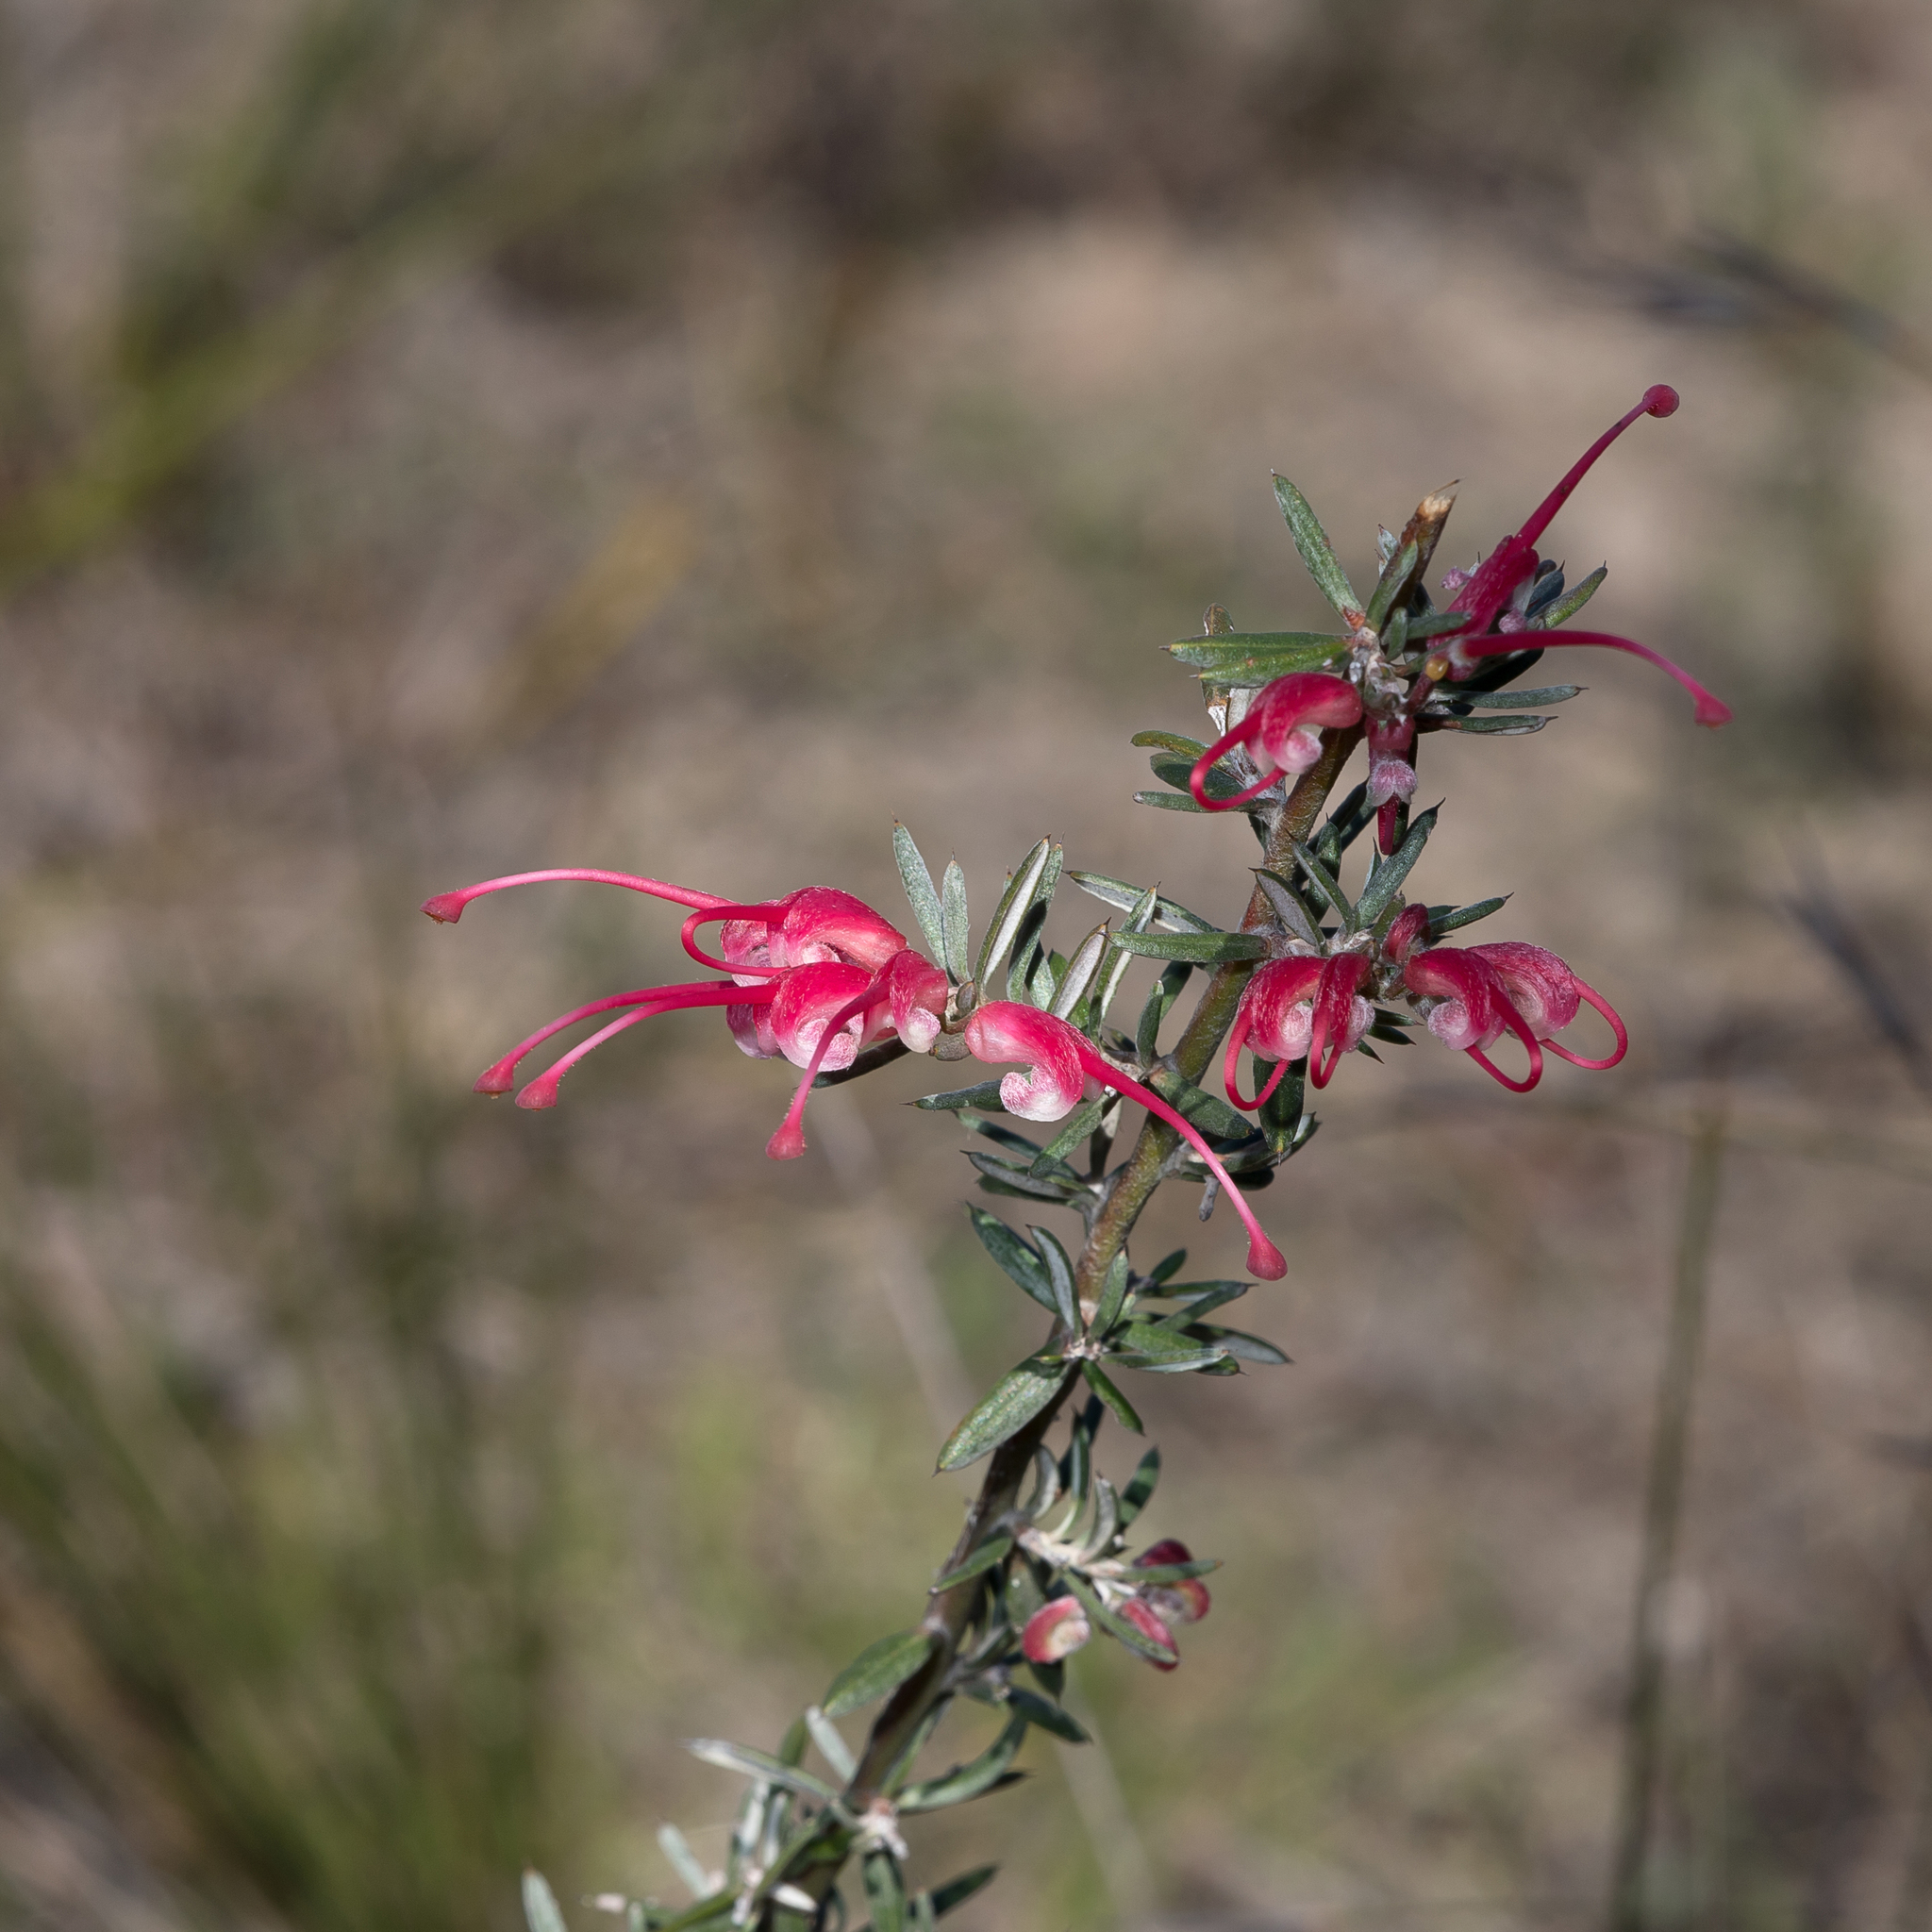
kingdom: Plantae
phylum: Tracheophyta
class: Magnoliopsida
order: Proteales
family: Proteaceae
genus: Grevillea
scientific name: Grevillea lavandulacea
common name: Lavender grevillea
